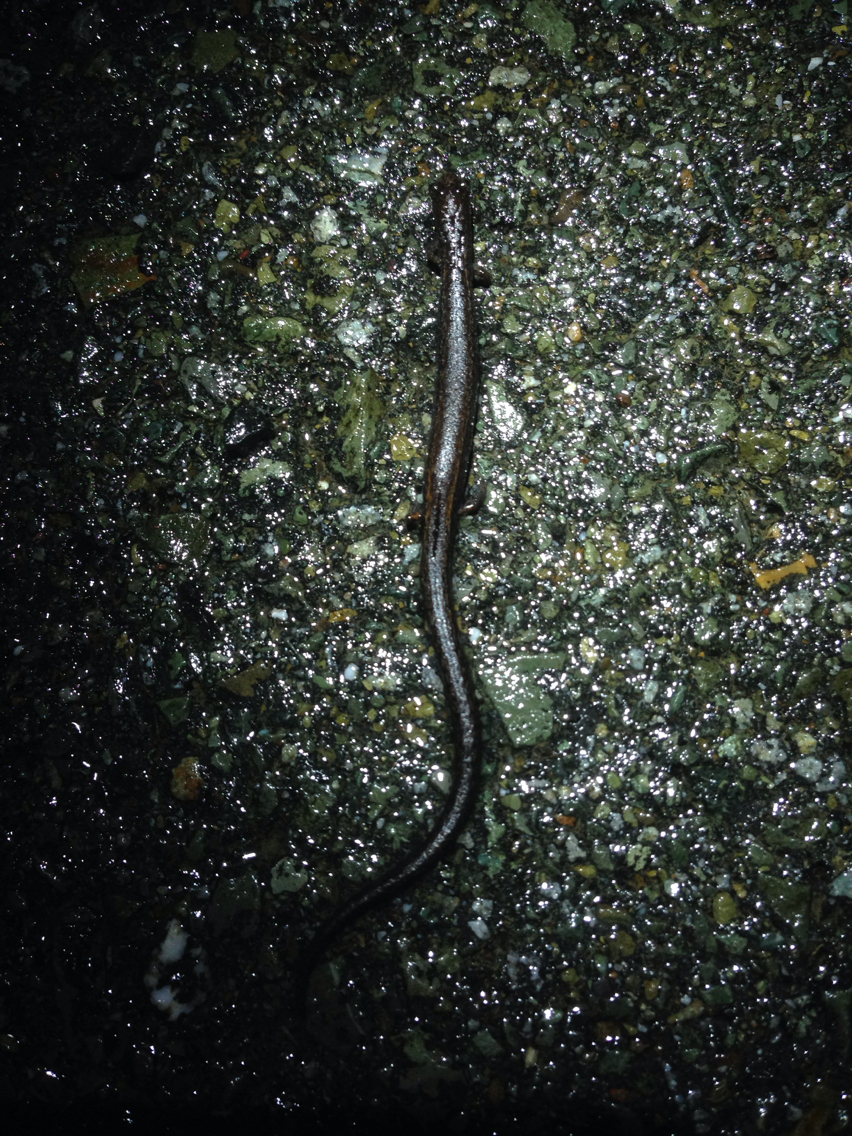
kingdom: Animalia
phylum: Chordata
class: Amphibia
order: Caudata
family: Plethodontidae
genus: Batrachoseps
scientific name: Batrachoseps attenuatus
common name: California slender salamander
